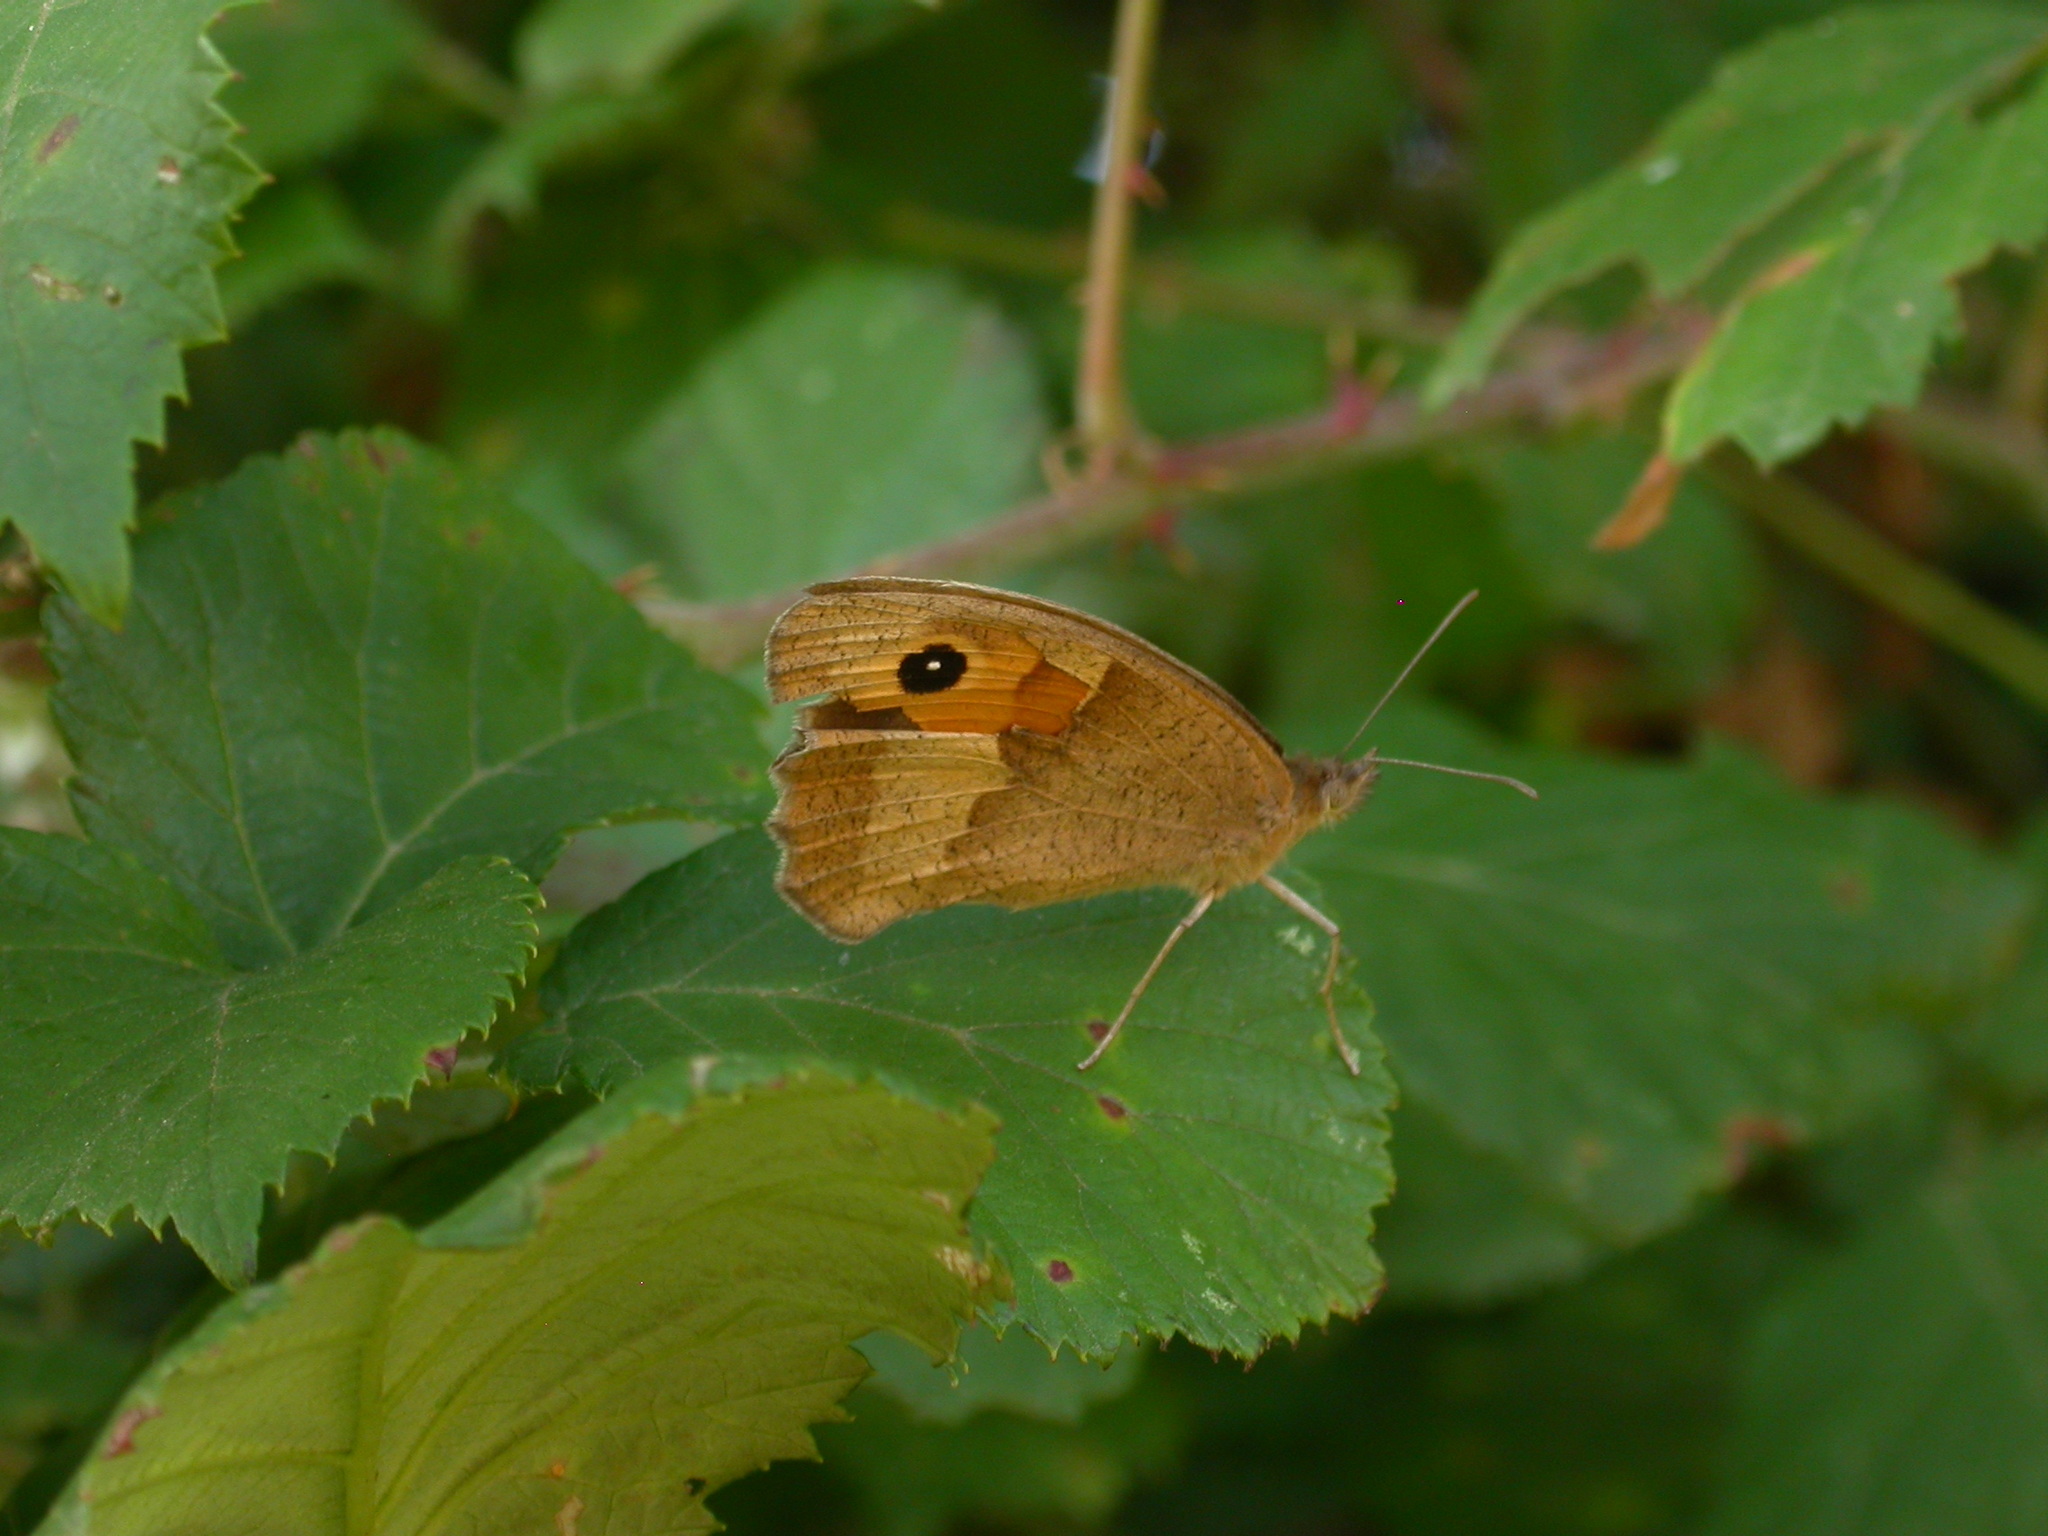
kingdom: Animalia
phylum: Arthropoda
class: Insecta
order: Lepidoptera
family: Nymphalidae
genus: Maniola
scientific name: Maniola jurtina
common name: Meadow brown
